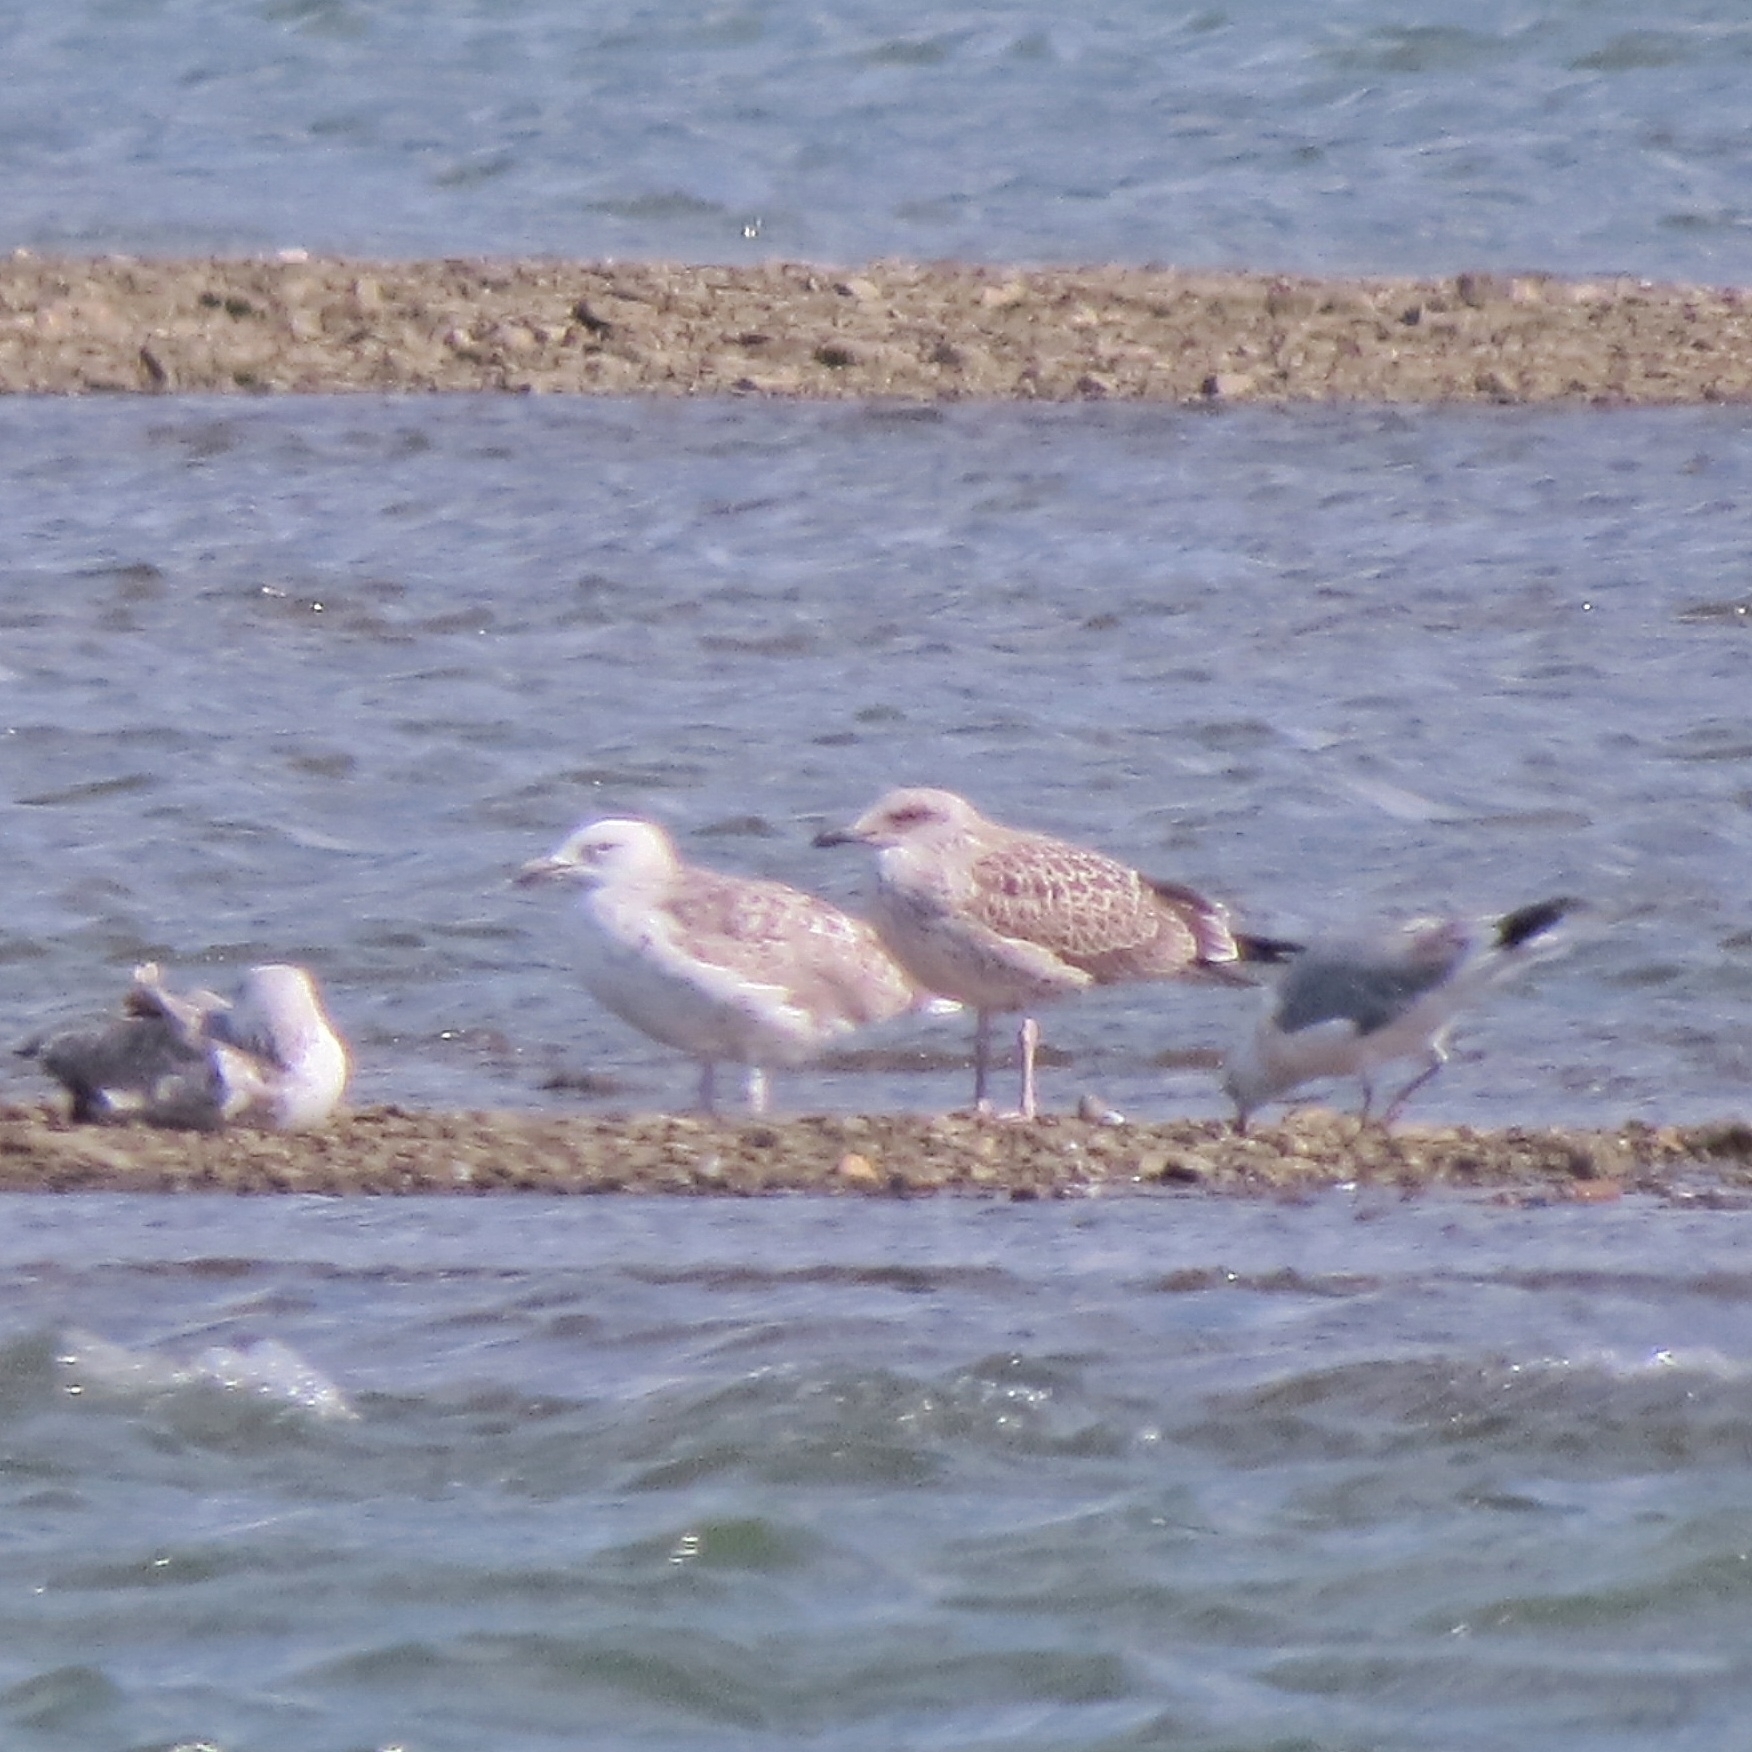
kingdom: Animalia
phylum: Chordata
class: Aves
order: Charadriiformes
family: Laridae
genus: Larus
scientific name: Larus fuscus
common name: Lesser black-backed gull
